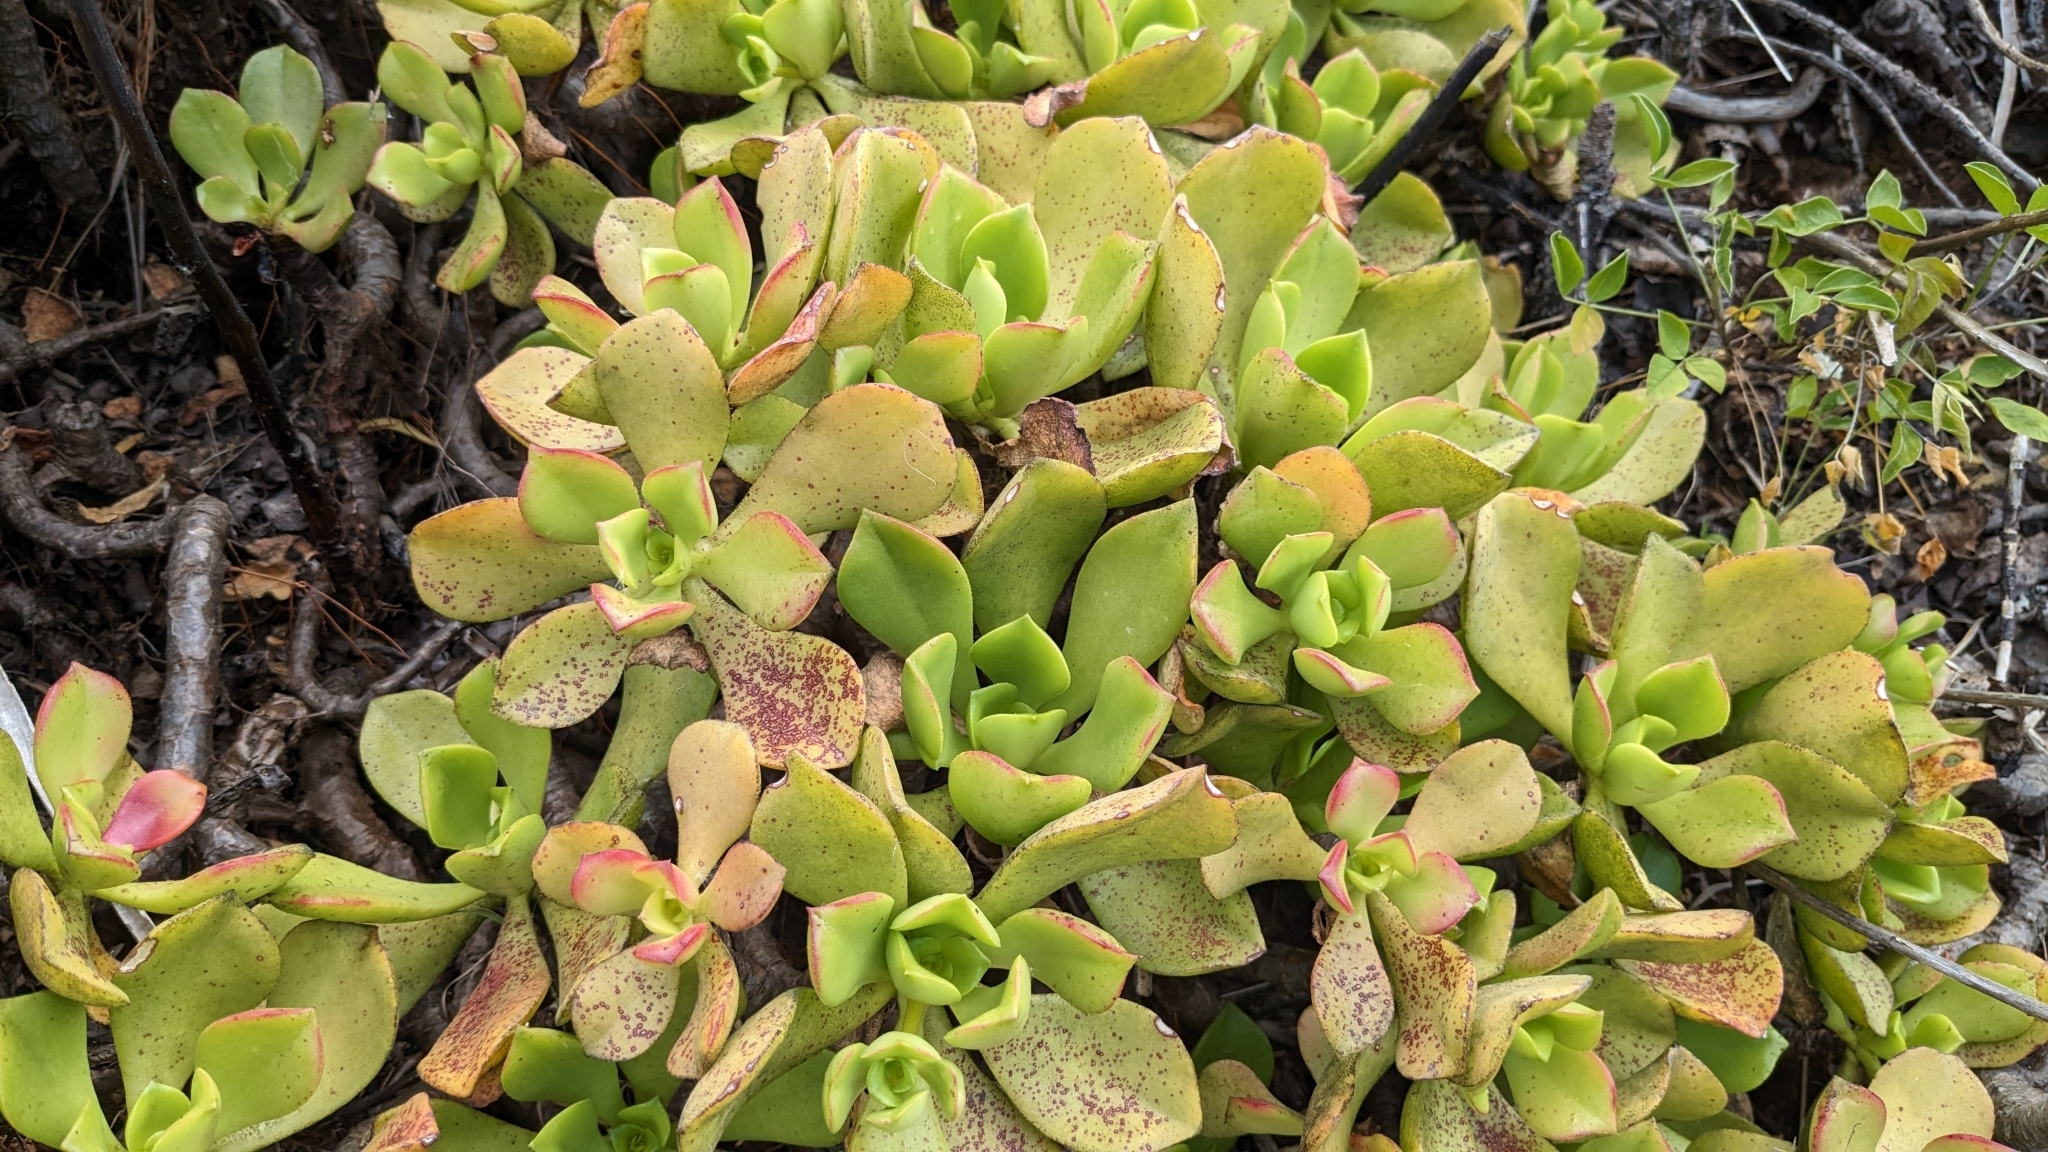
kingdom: Plantae
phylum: Tracheophyta
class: Magnoliopsida
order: Saxifragales
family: Crassulaceae
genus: Aeonium
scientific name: Aeonium glutinosum
